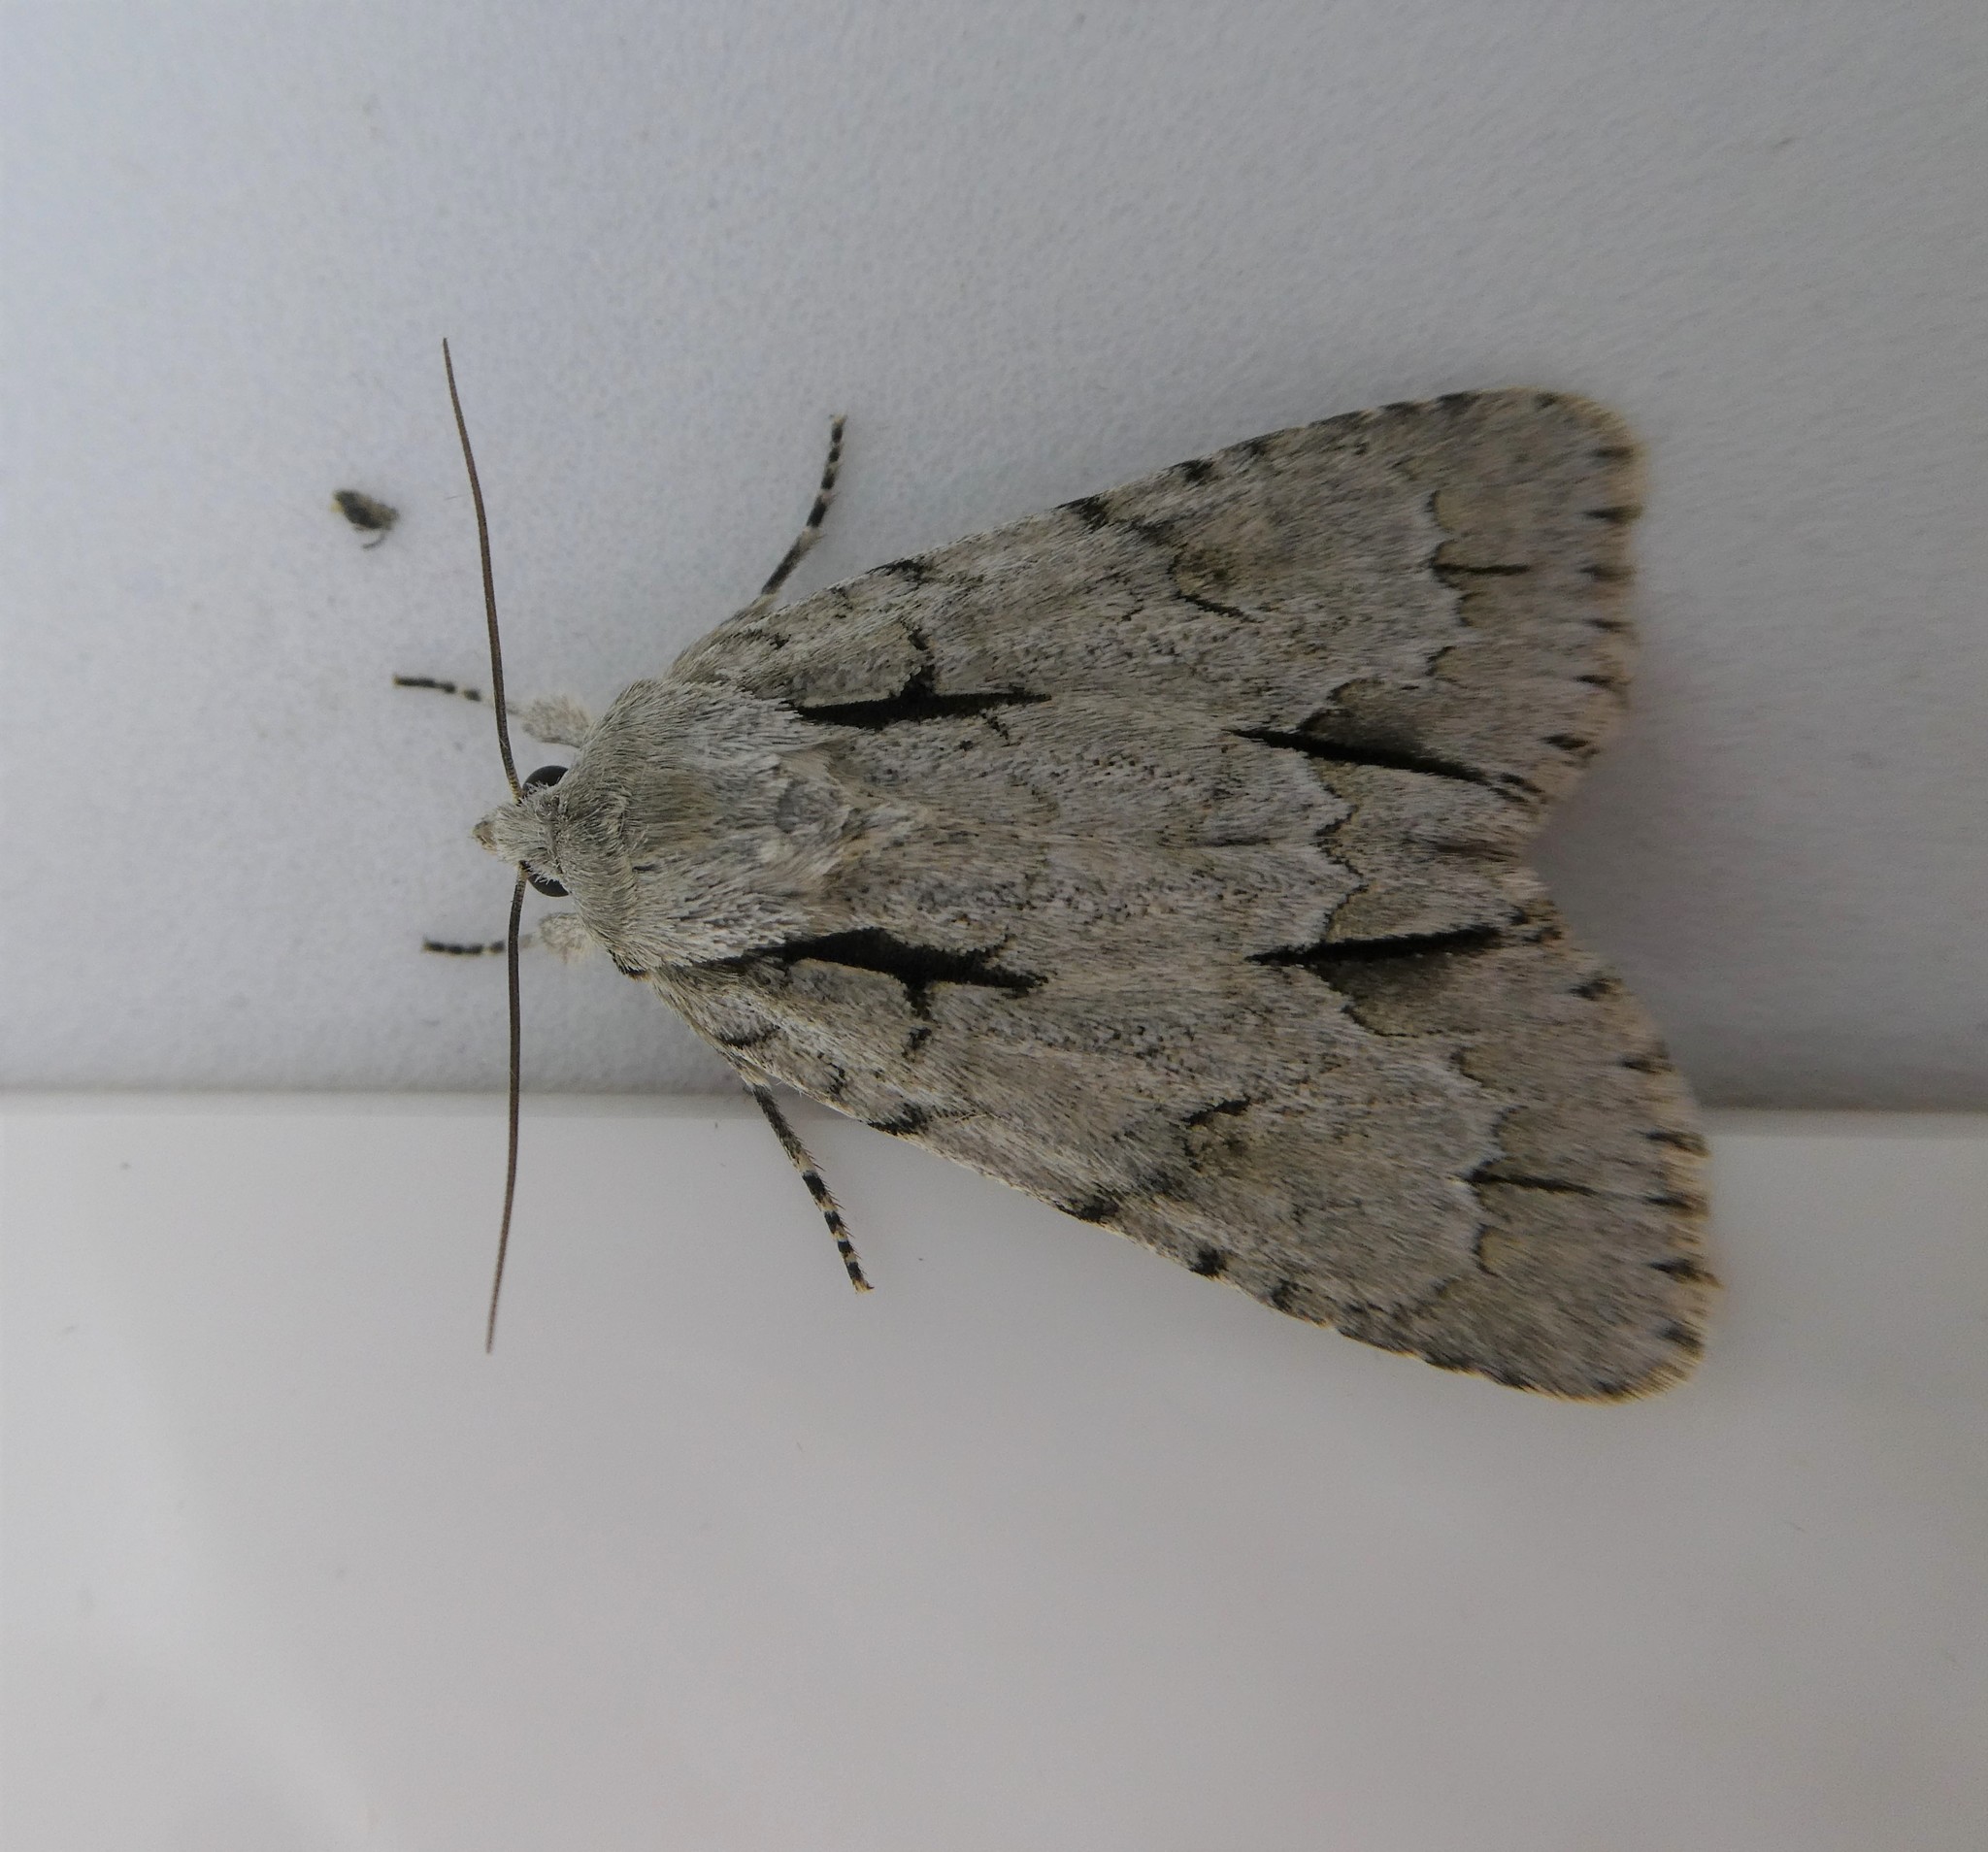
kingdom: Animalia
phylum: Arthropoda
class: Insecta
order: Lepidoptera
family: Noctuidae
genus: Acronicta
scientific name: Acronicta interrupta
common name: Interrupted dagger
